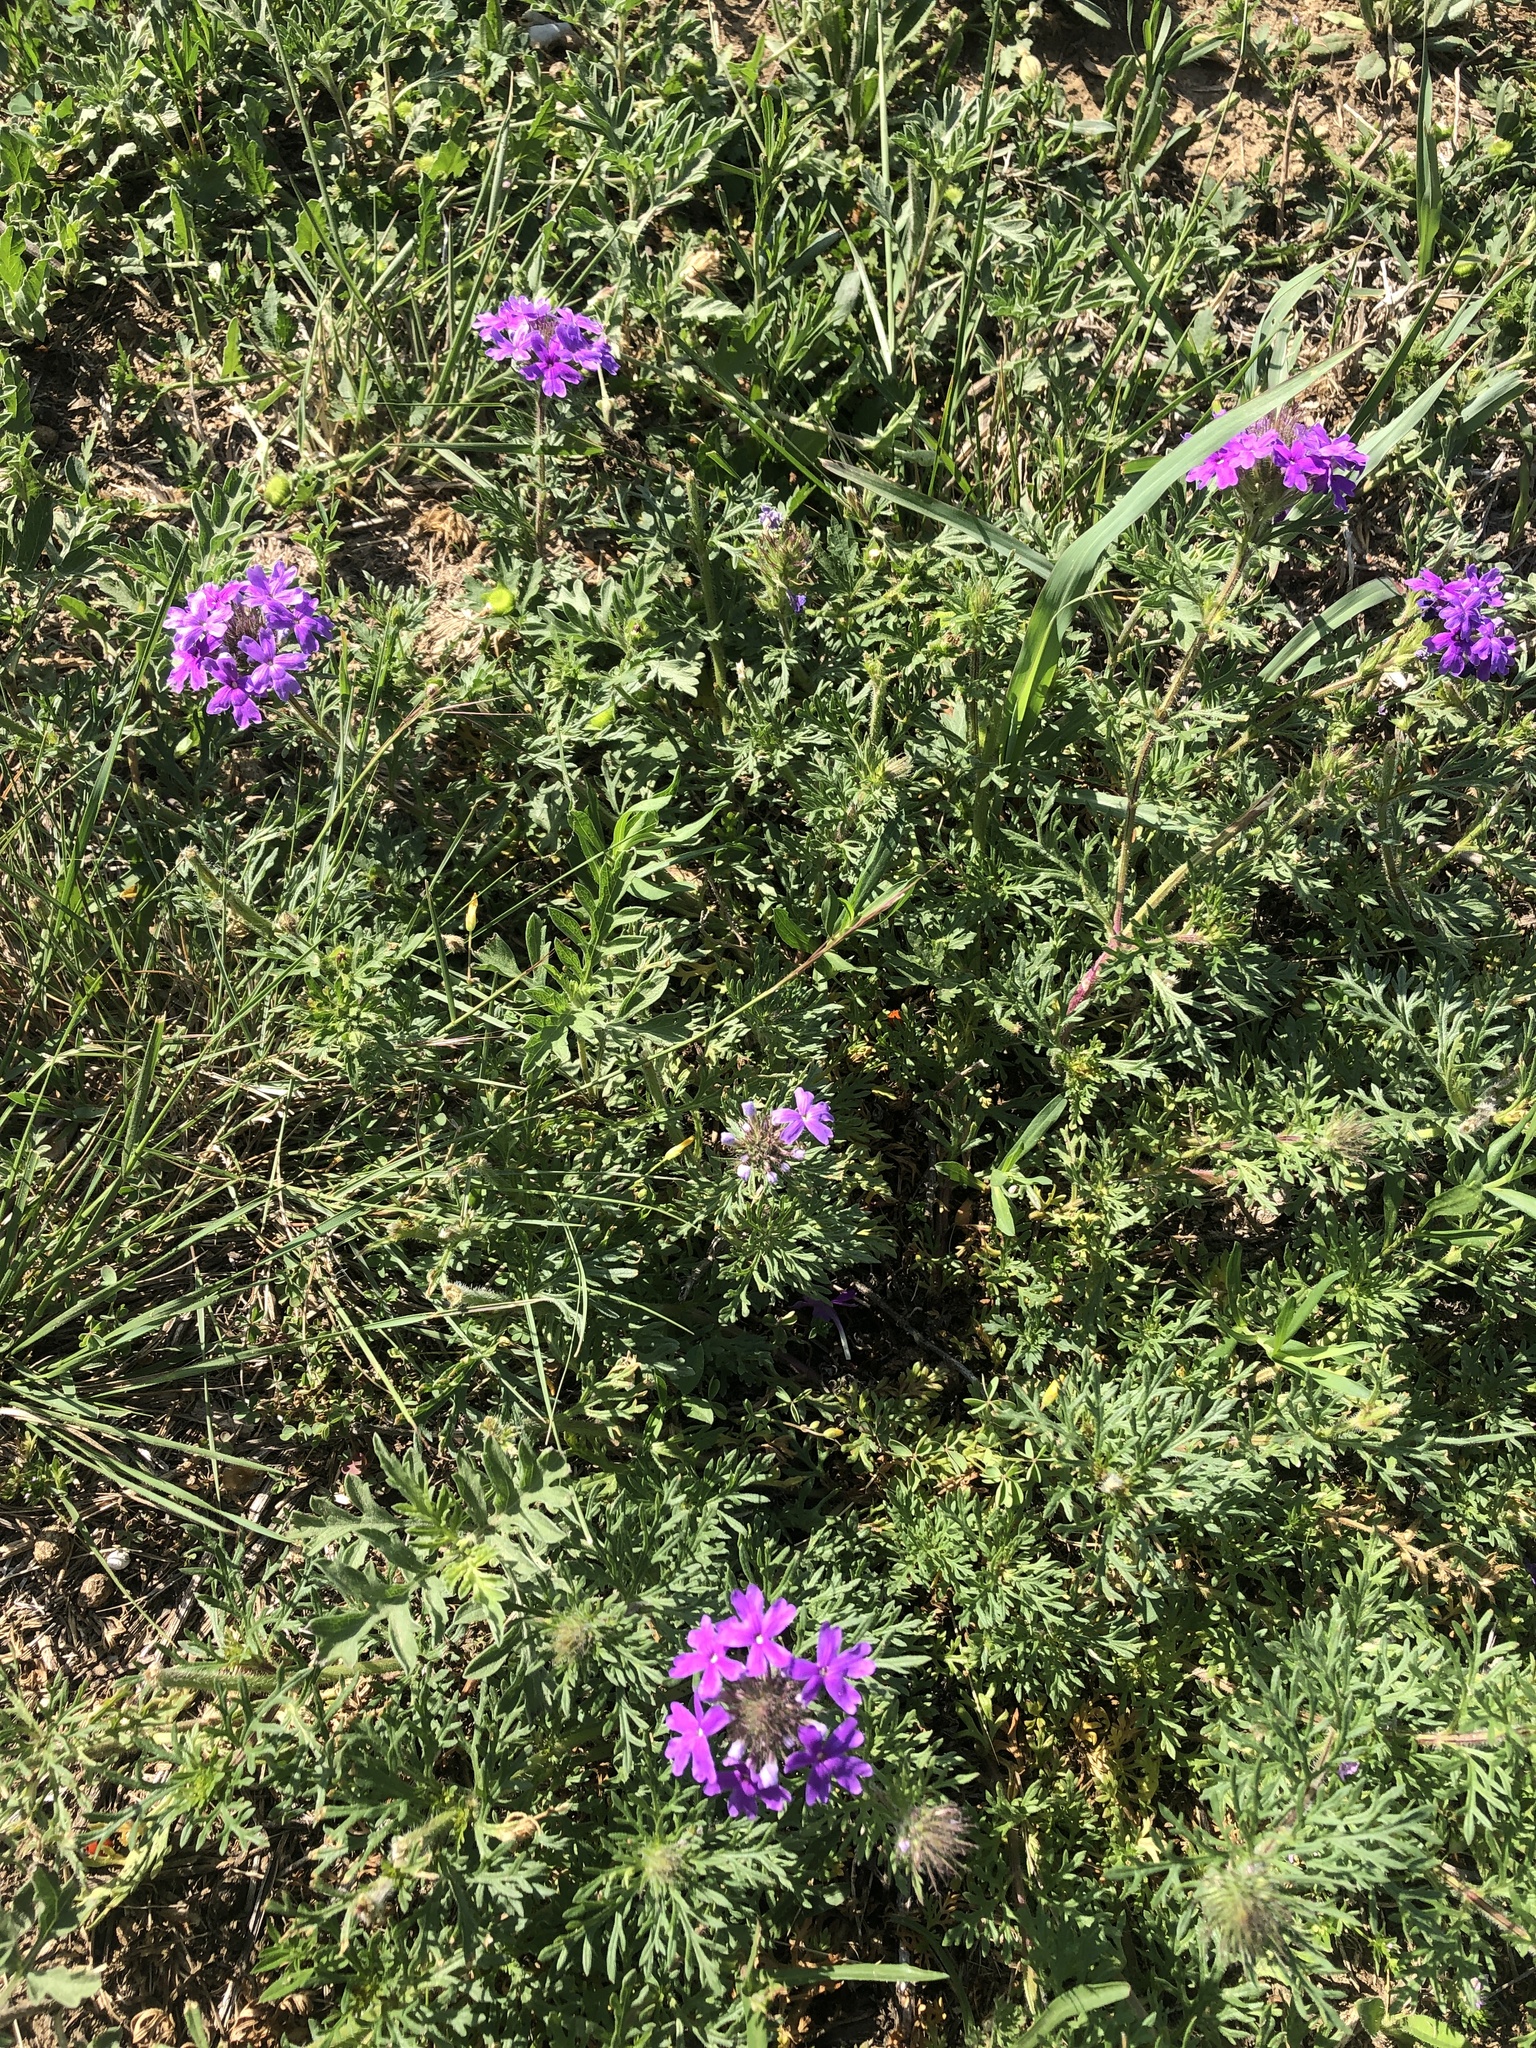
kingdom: Plantae
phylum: Tracheophyta
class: Magnoliopsida
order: Lamiales
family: Verbenaceae
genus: Verbena
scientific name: Verbena bipinnatifida
